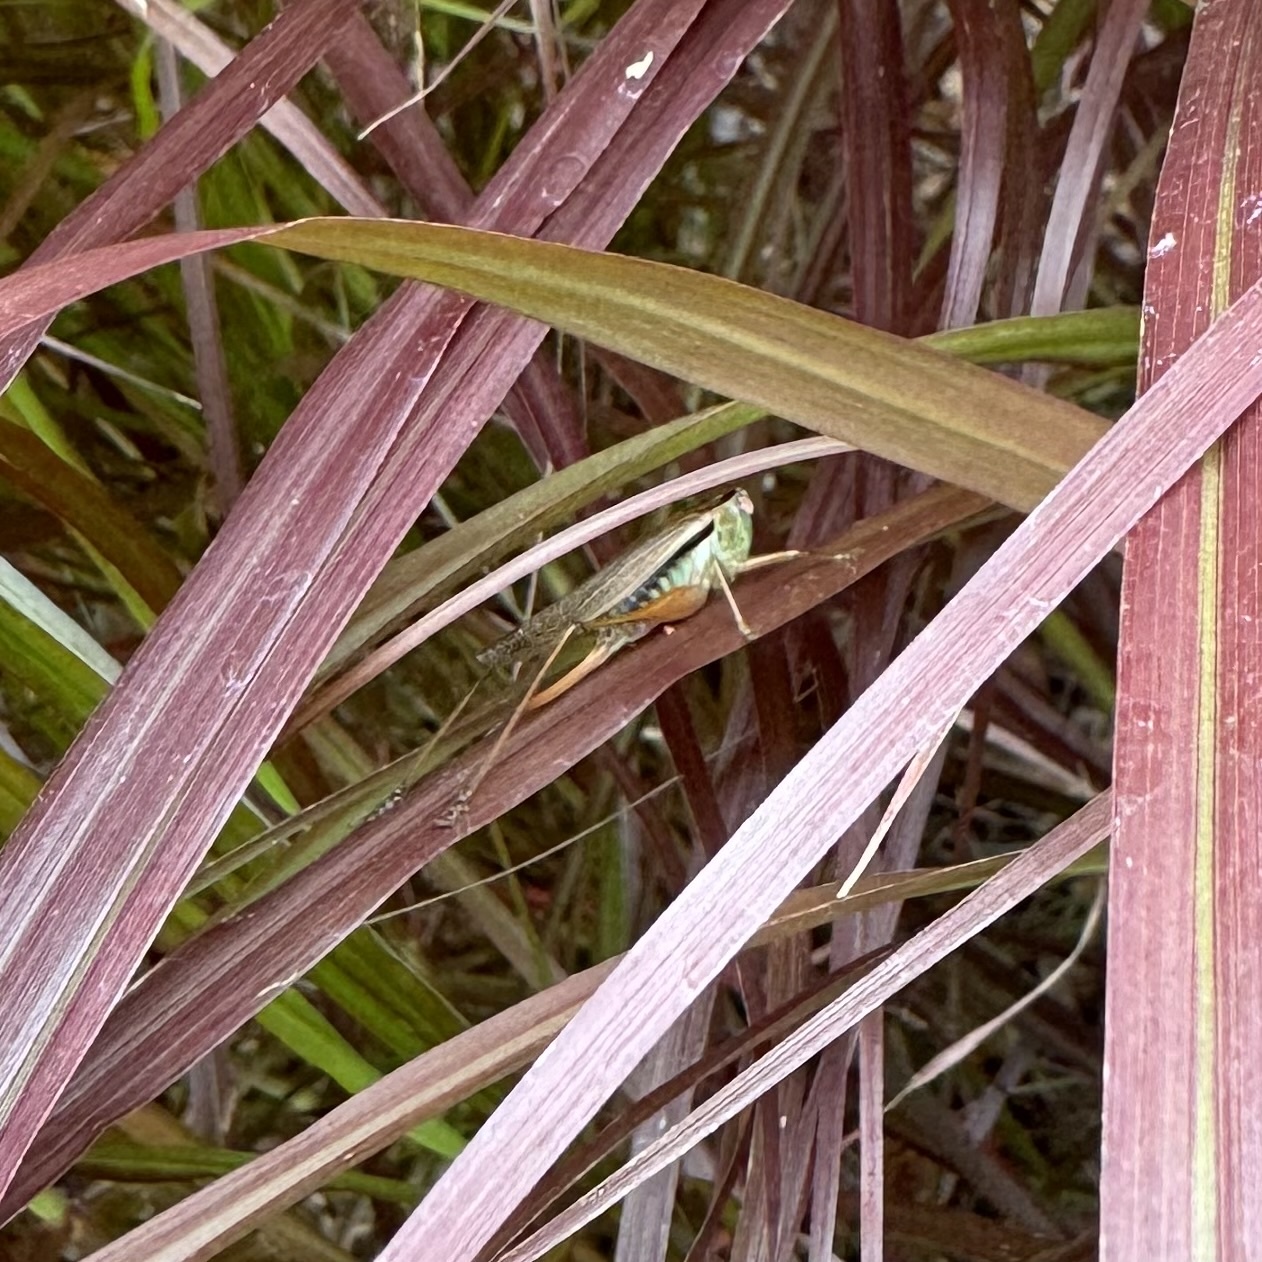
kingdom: Animalia
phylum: Arthropoda
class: Insecta
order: Orthoptera
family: Tettigoniidae
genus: Conocephalus
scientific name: Conocephalus semivittatus
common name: Blackish meadow katydid
